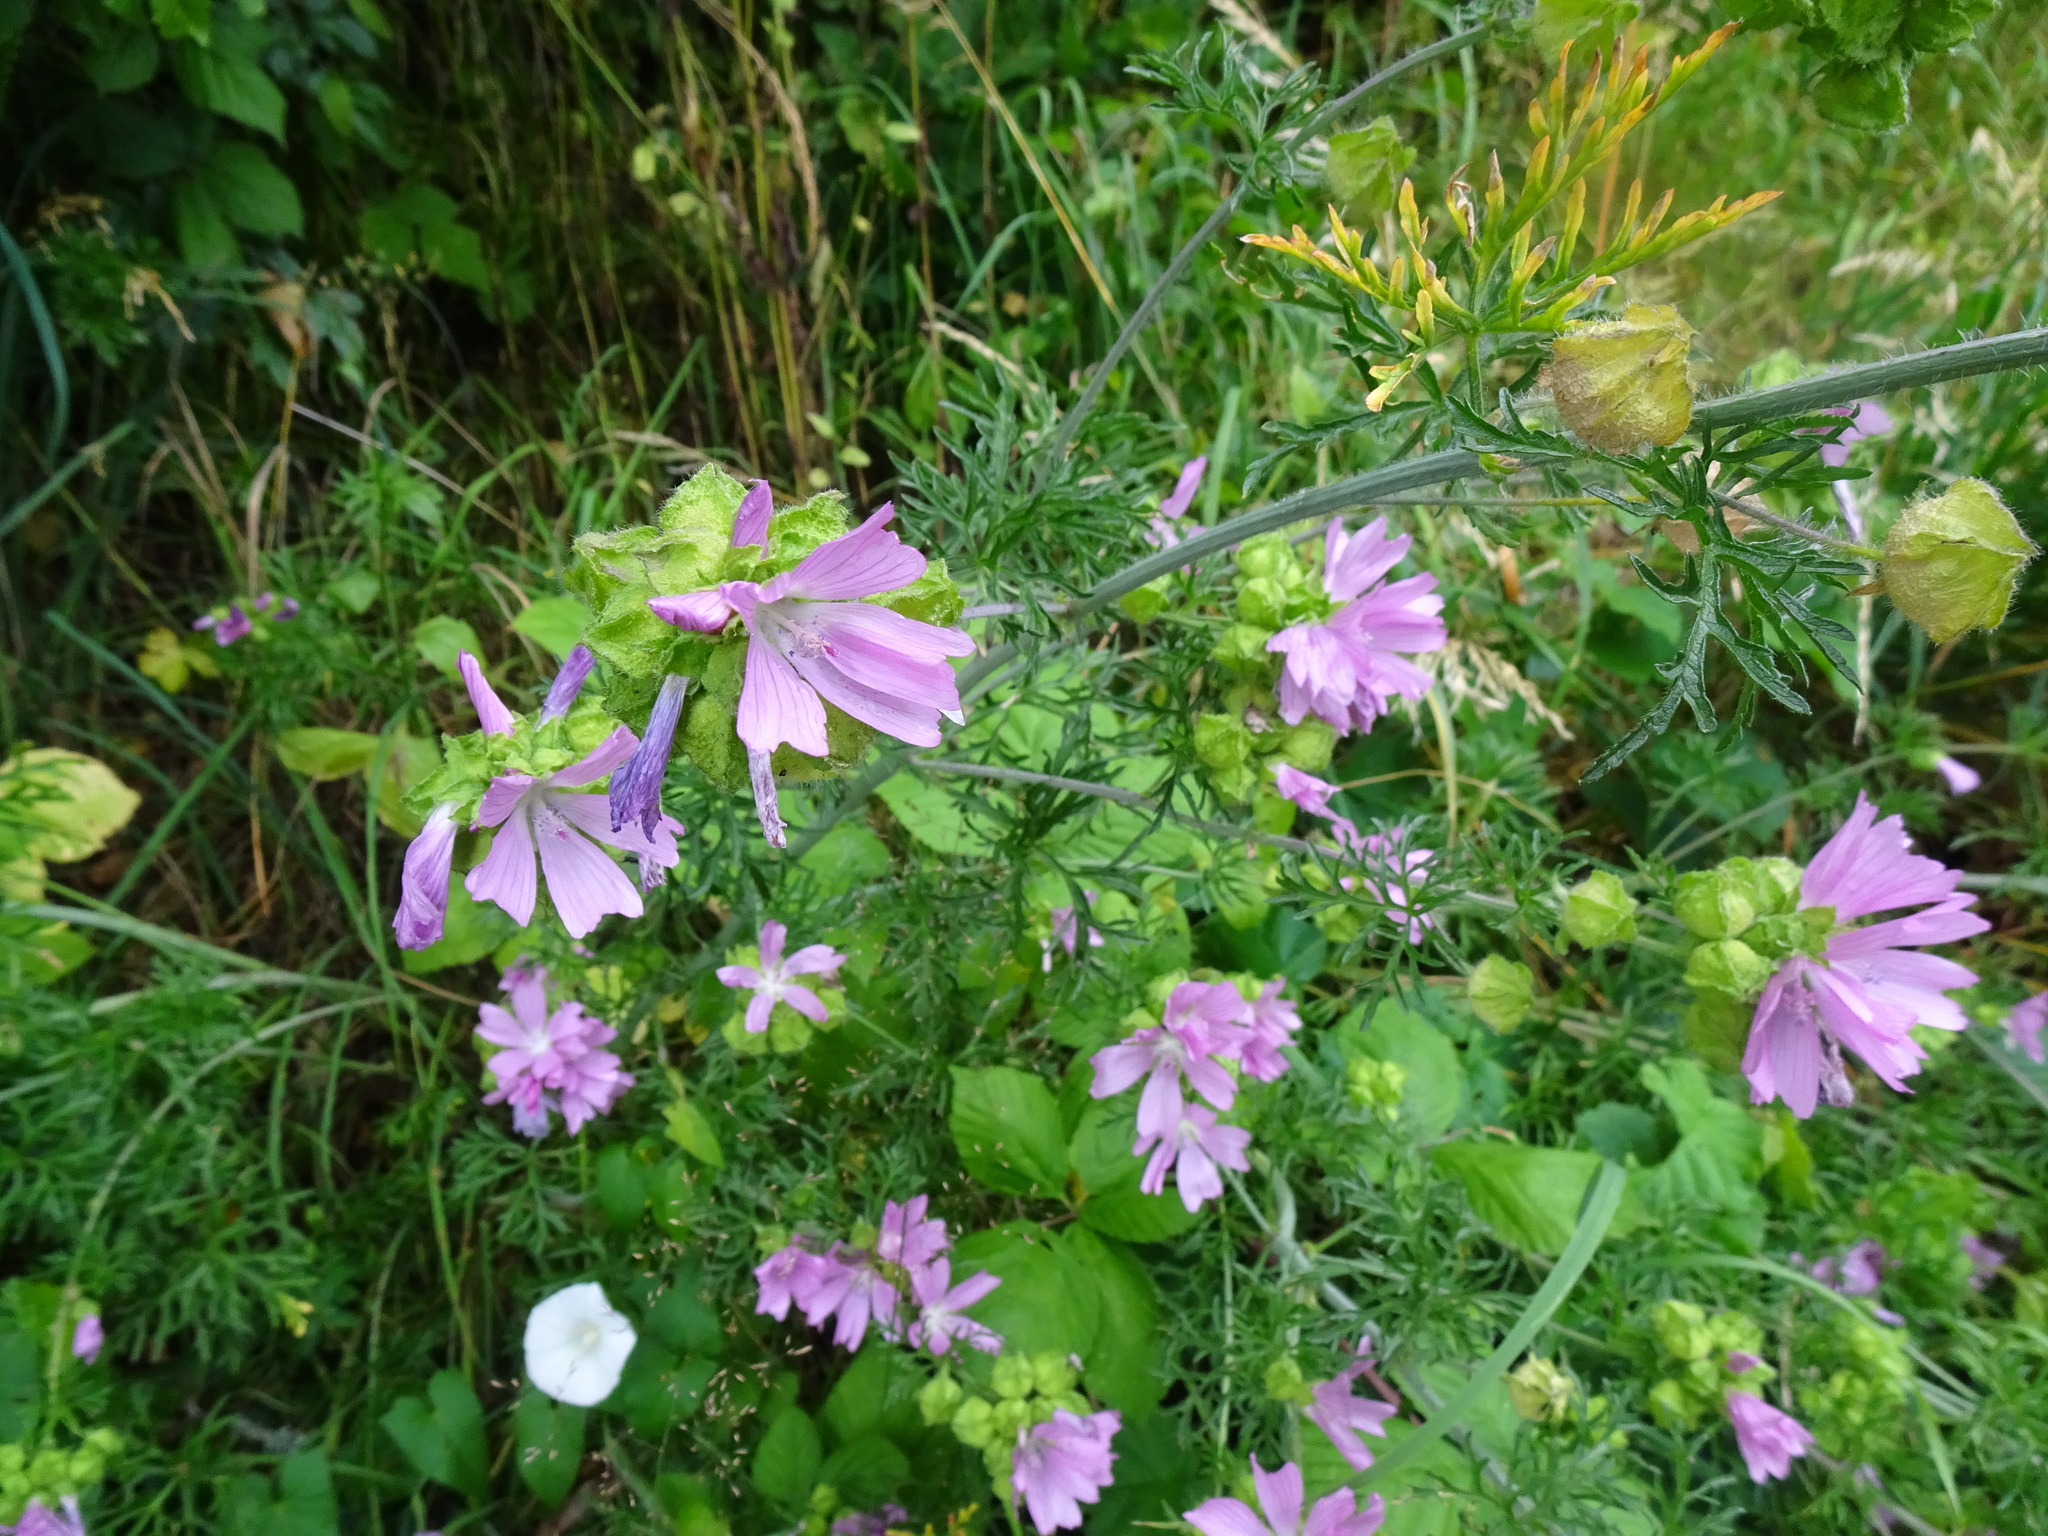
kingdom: Plantae
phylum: Tracheophyta
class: Magnoliopsida
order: Malvales
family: Malvaceae
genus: Malva
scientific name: Malva moschata
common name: Musk mallow
